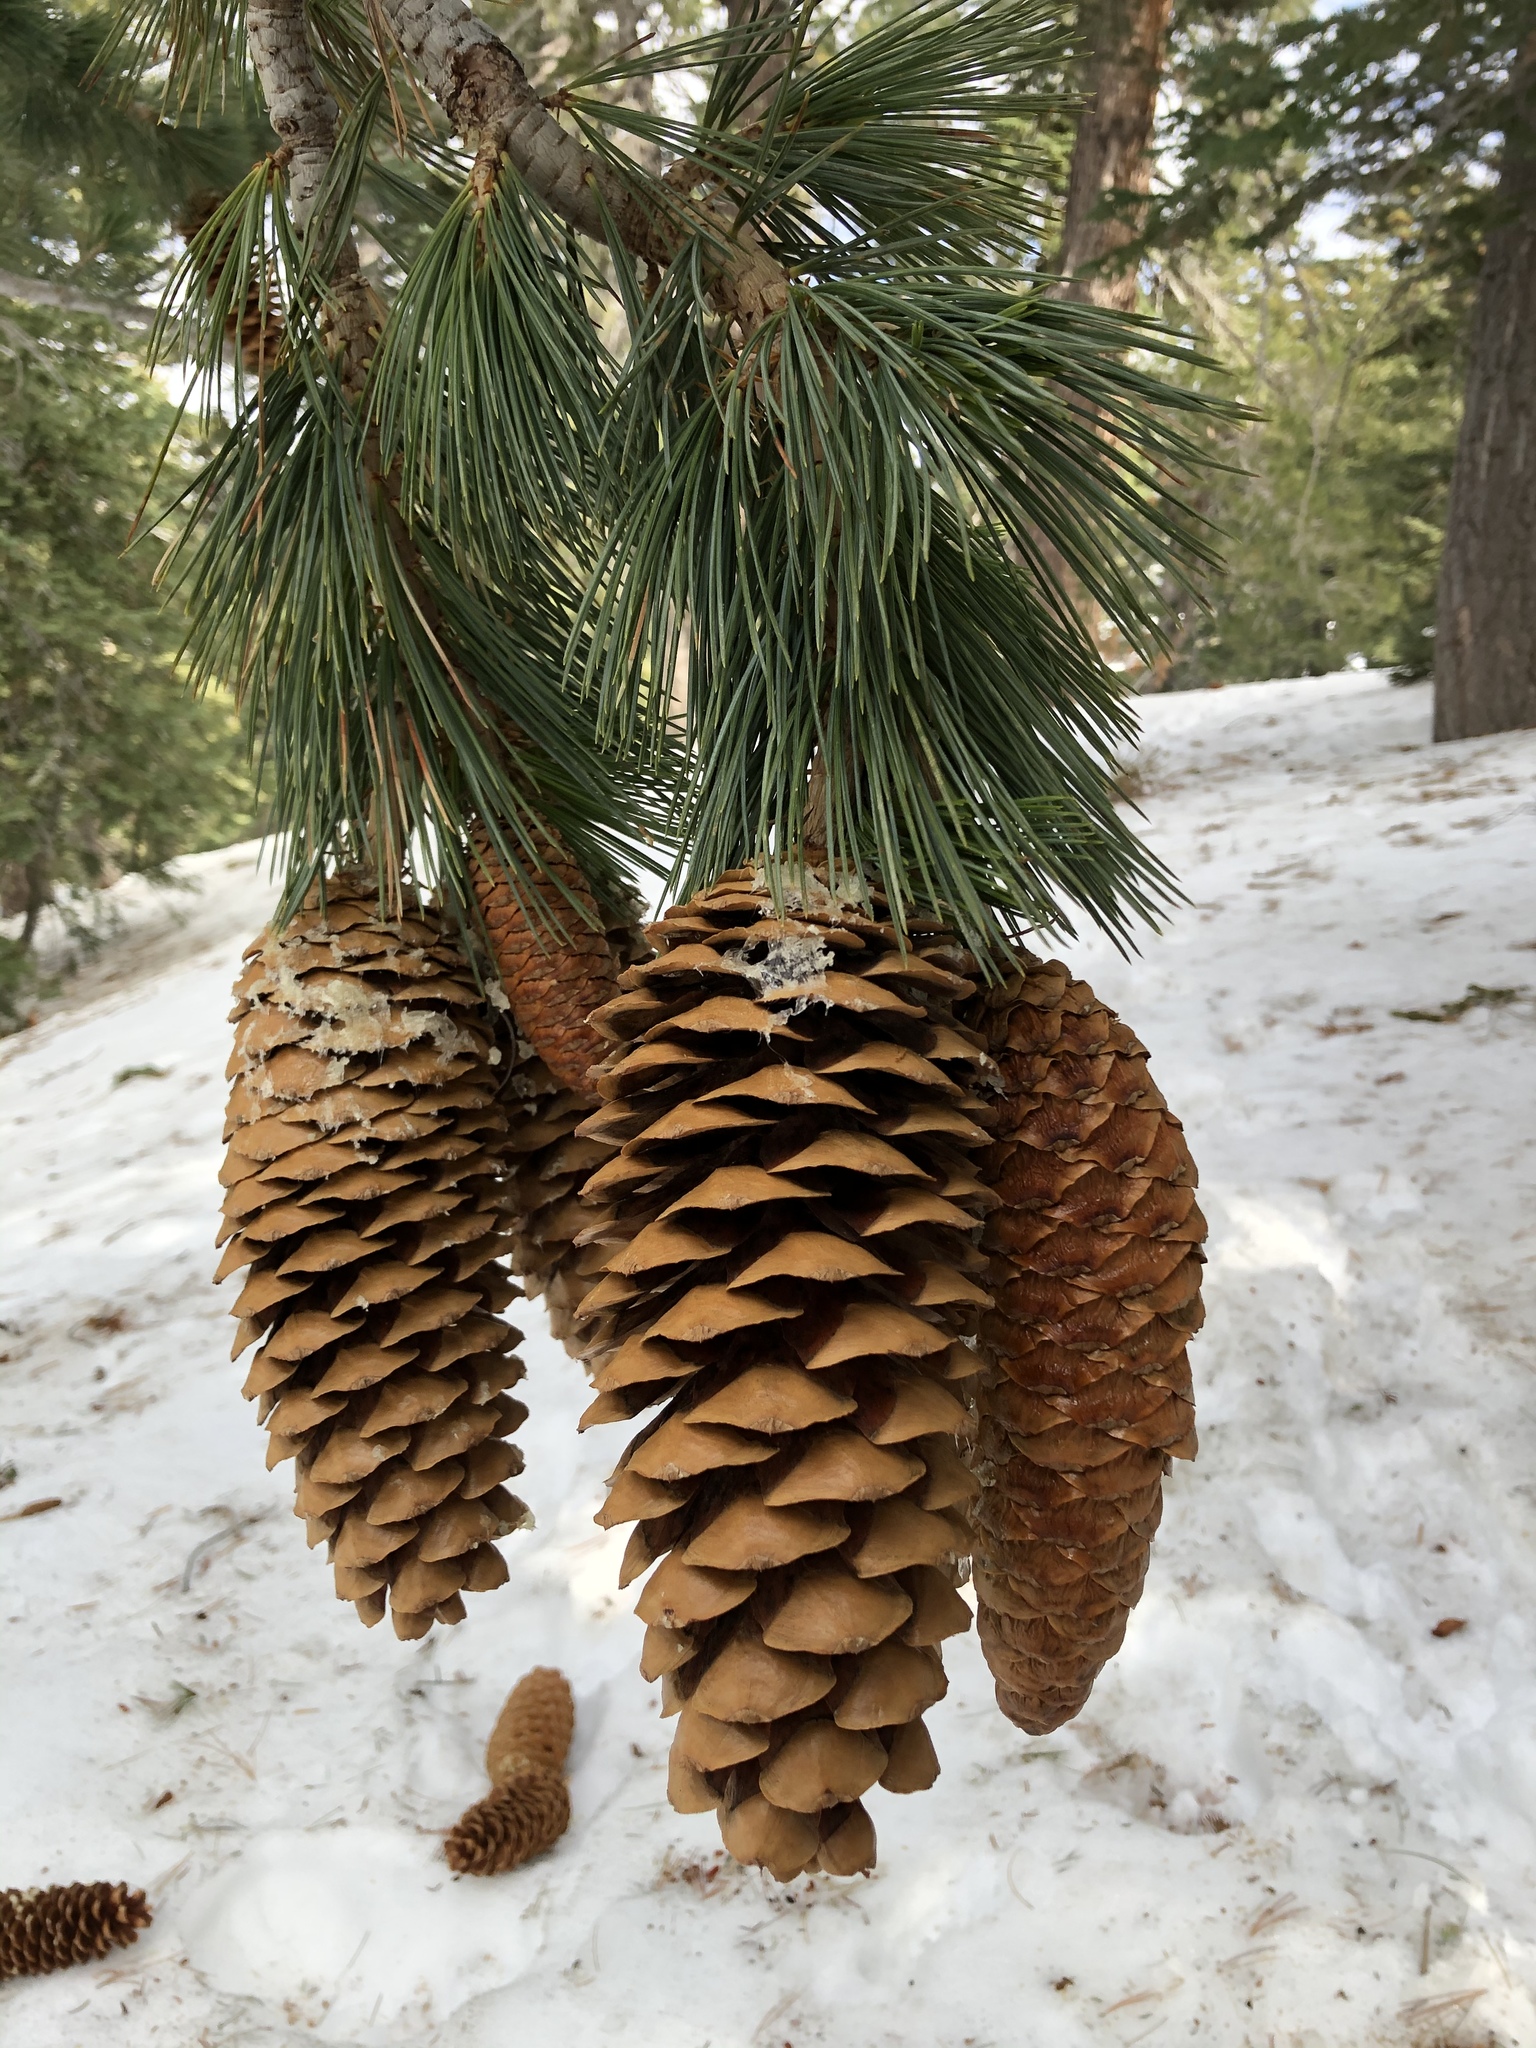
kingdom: Plantae
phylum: Tracheophyta
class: Pinopsida
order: Pinales
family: Pinaceae
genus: Pinus
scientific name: Pinus lambertiana
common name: Sugar pine
